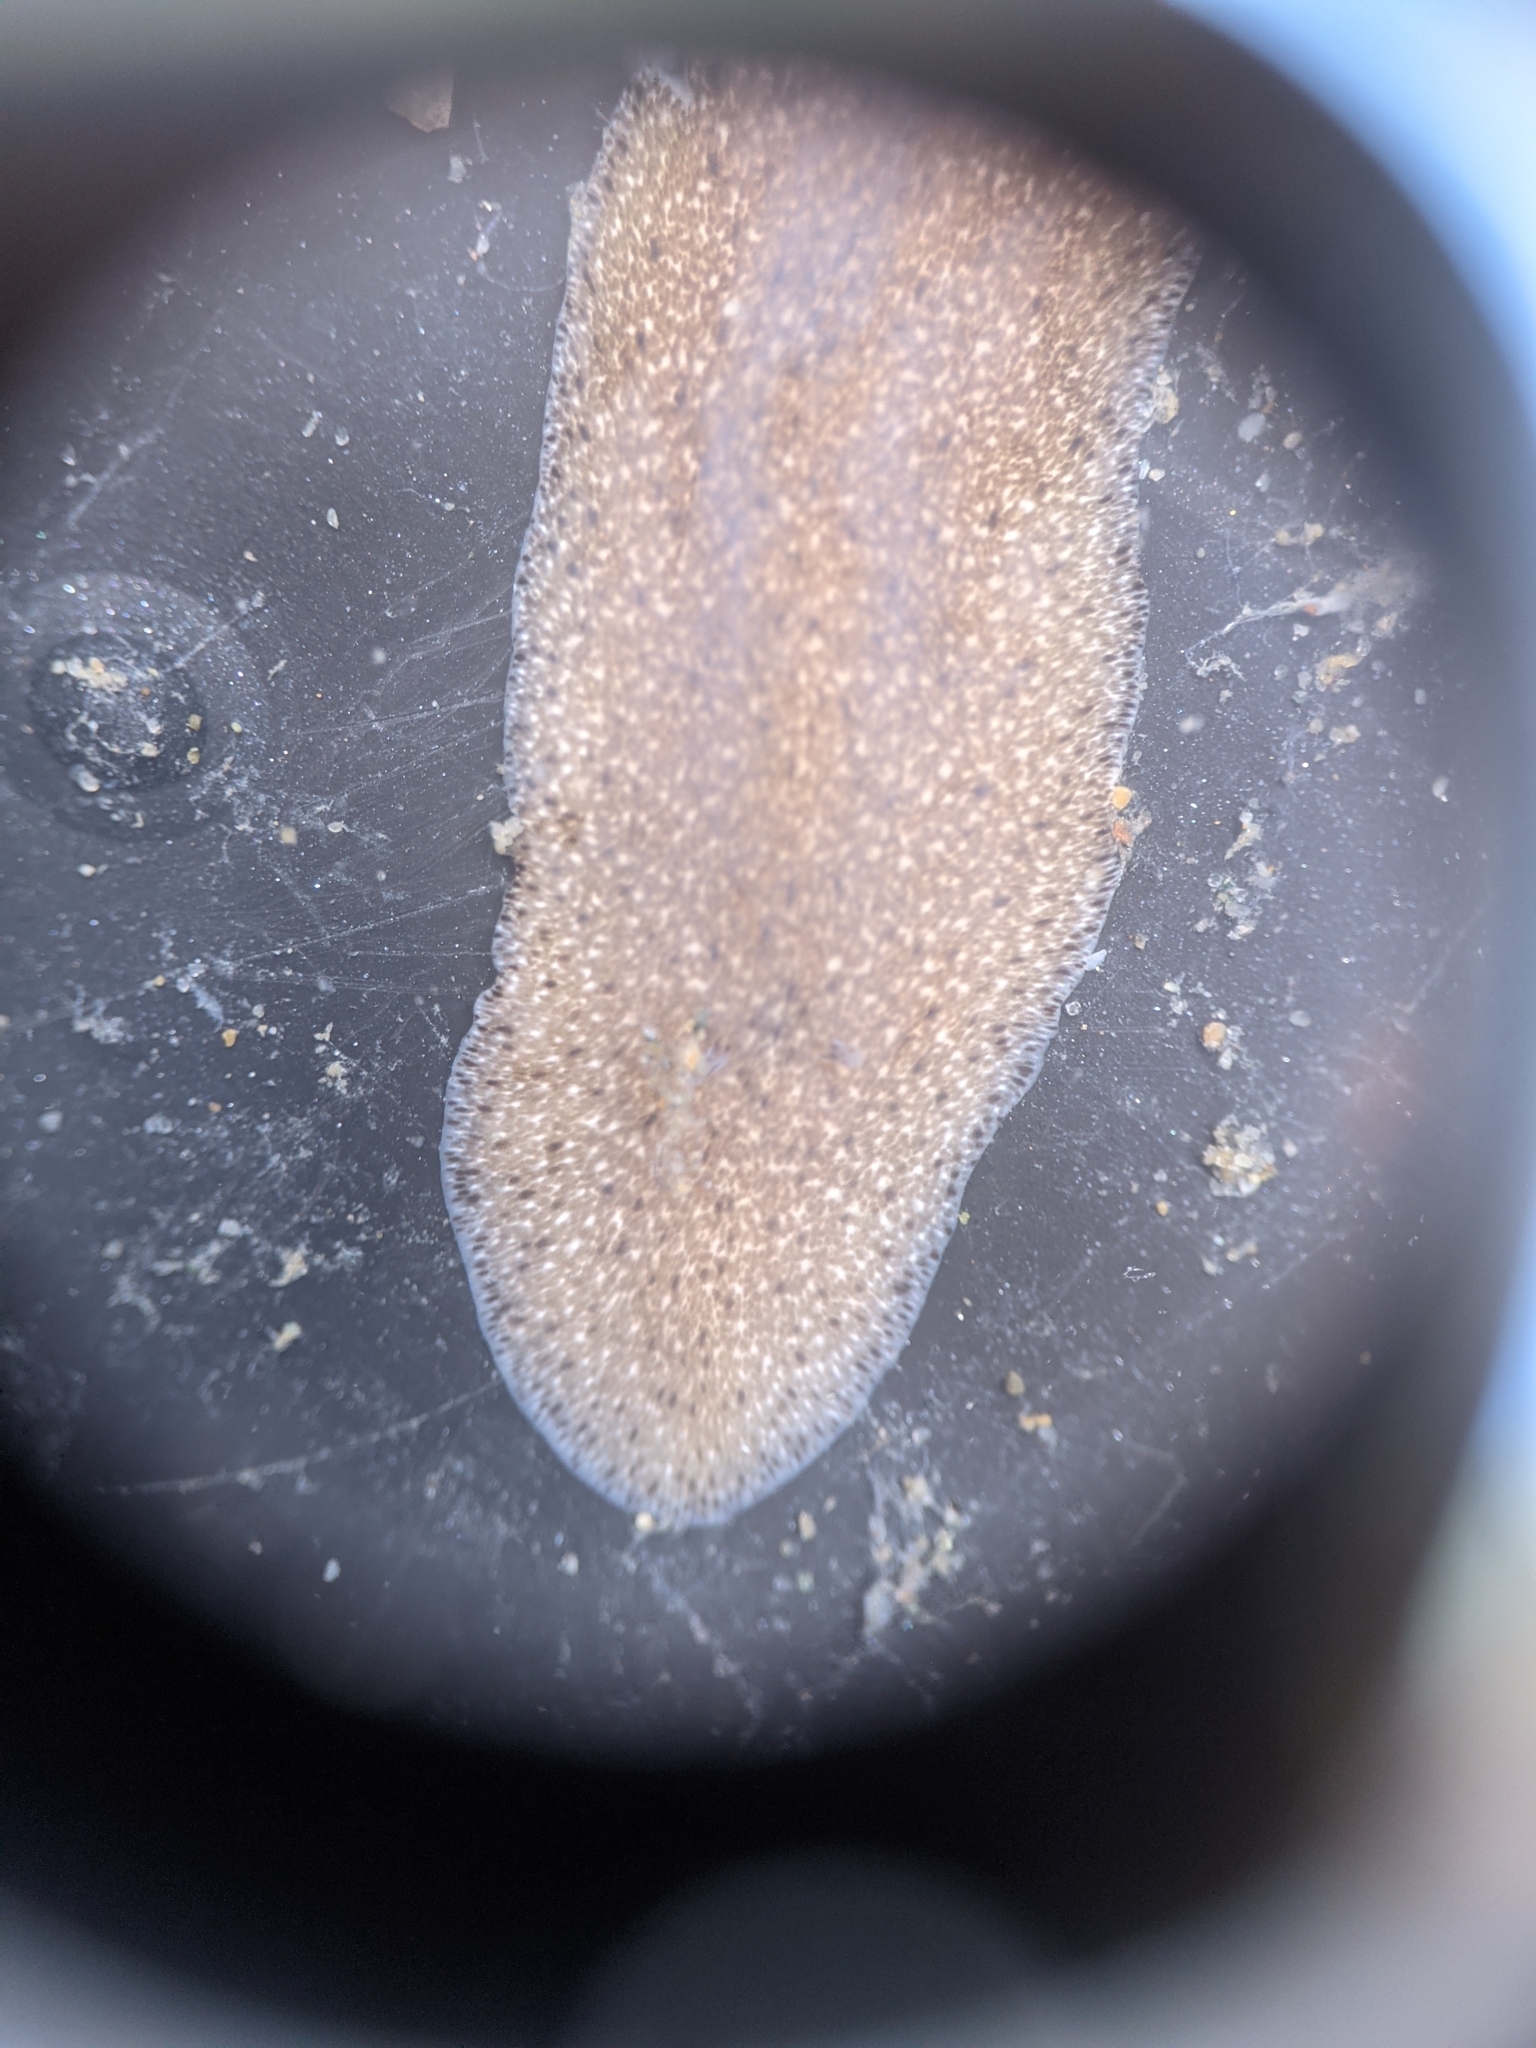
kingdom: Animalia
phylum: Platyhelminthes
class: Turbellaria
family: Callioplanidae
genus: Kaburakia
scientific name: Kaburakia excelsa
